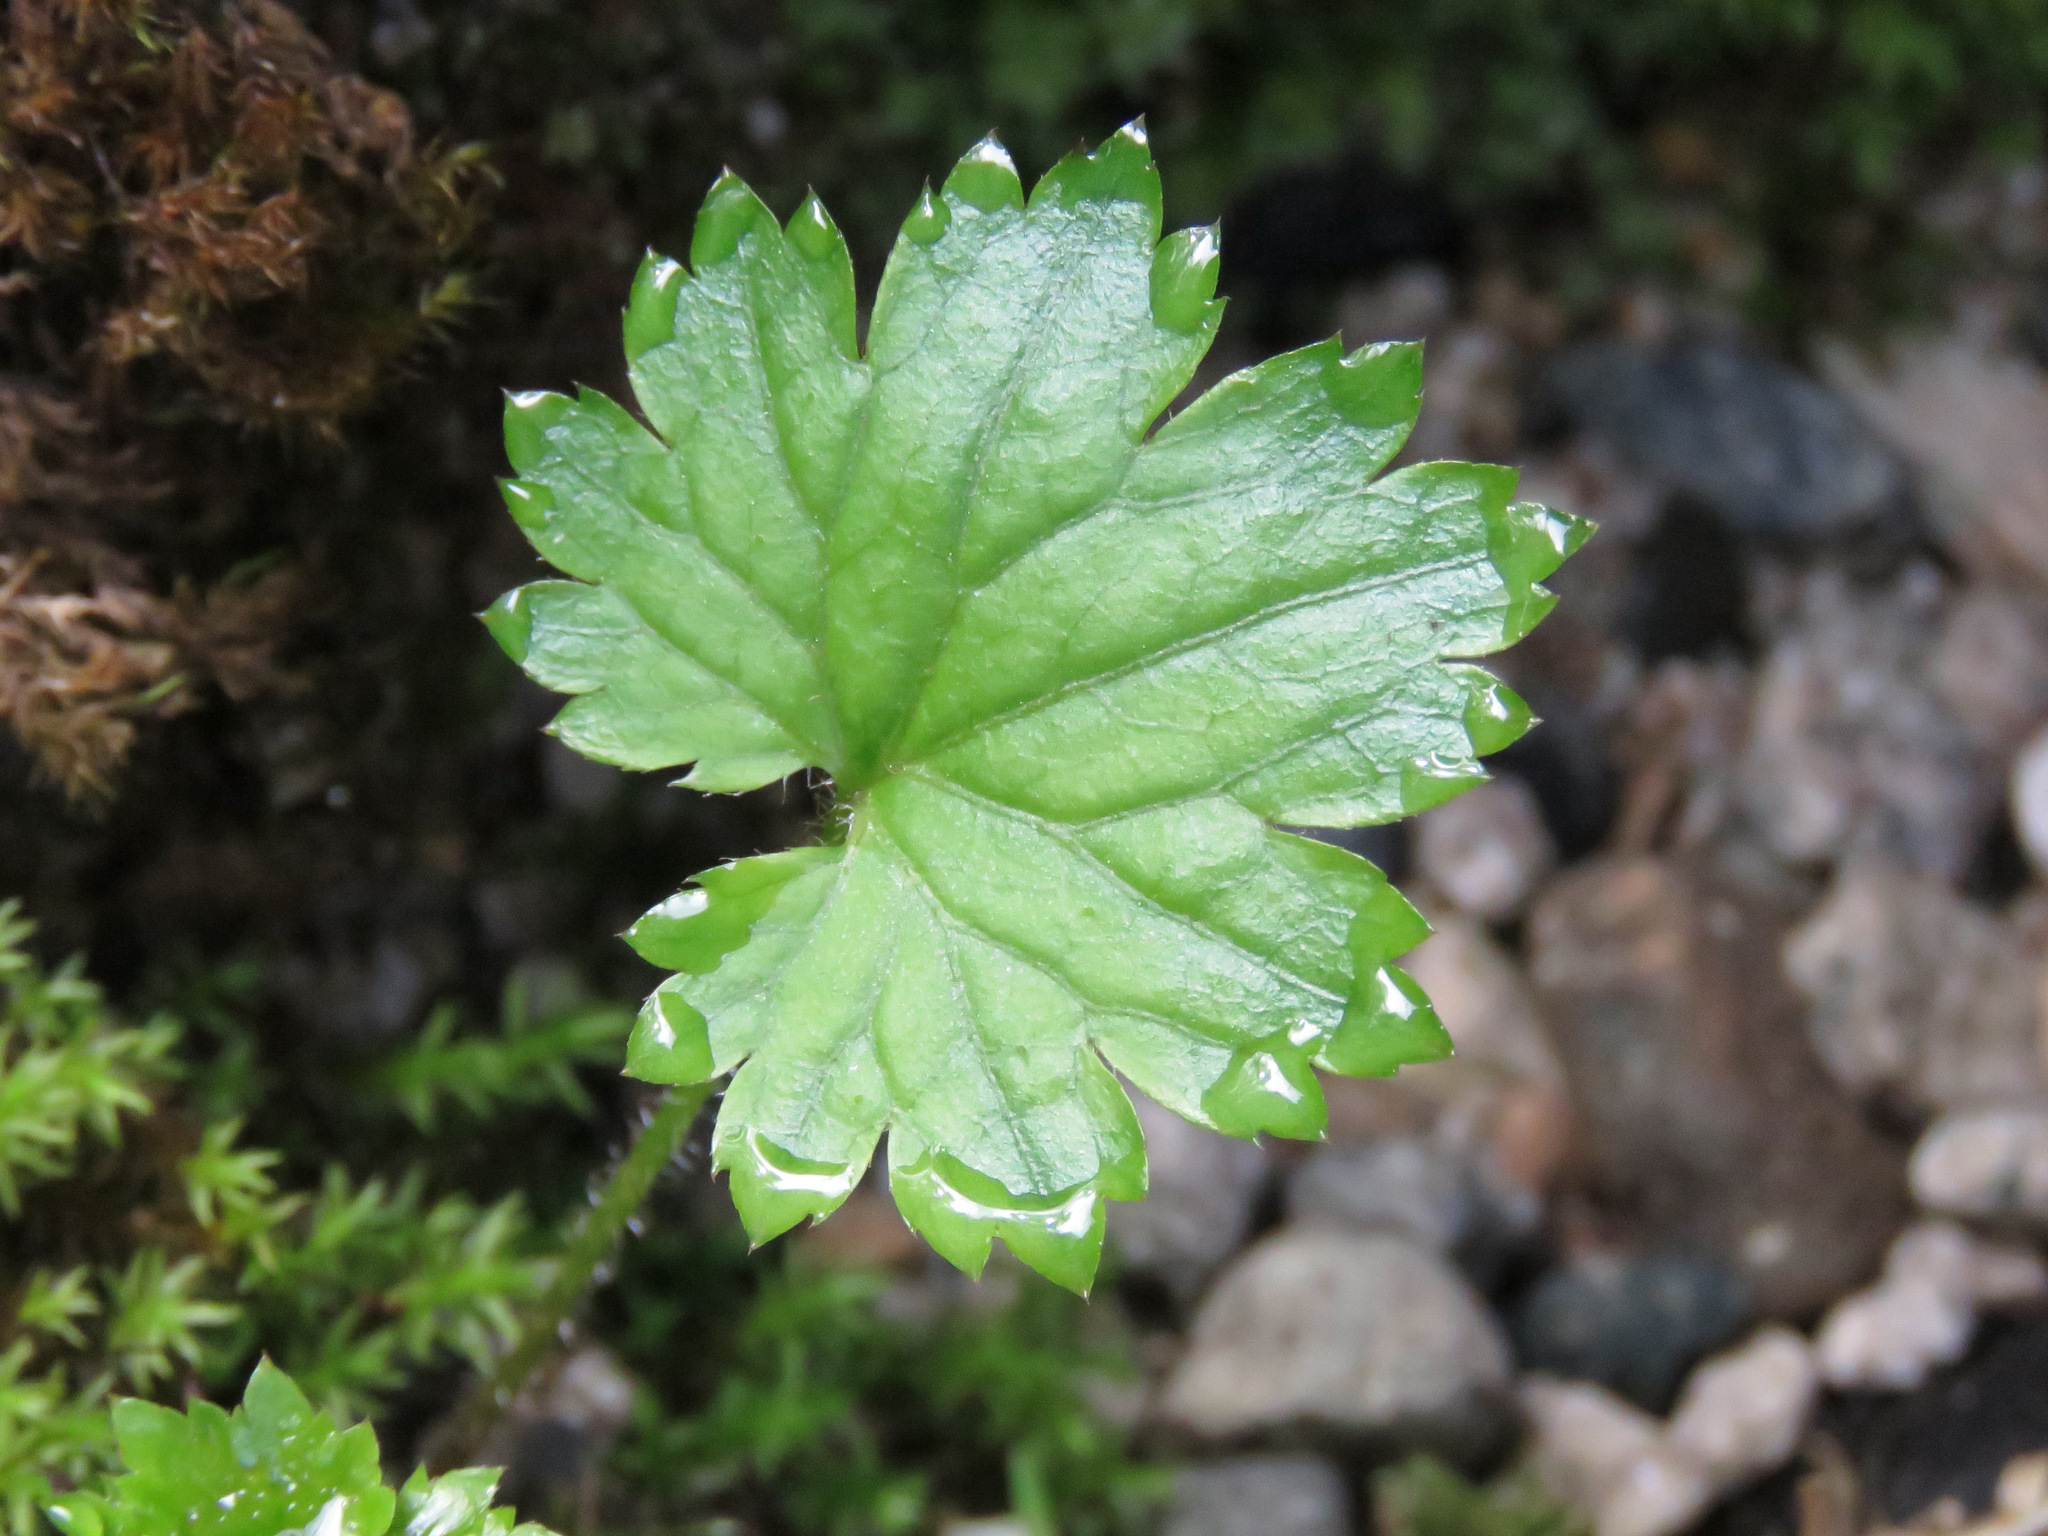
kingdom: Plantae
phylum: Tracheophyta
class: Magnoliopsida
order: Saxifragales
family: Saxifragaceae
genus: Boykinia
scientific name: Boykinia occidentalis
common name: Coast boykinia
